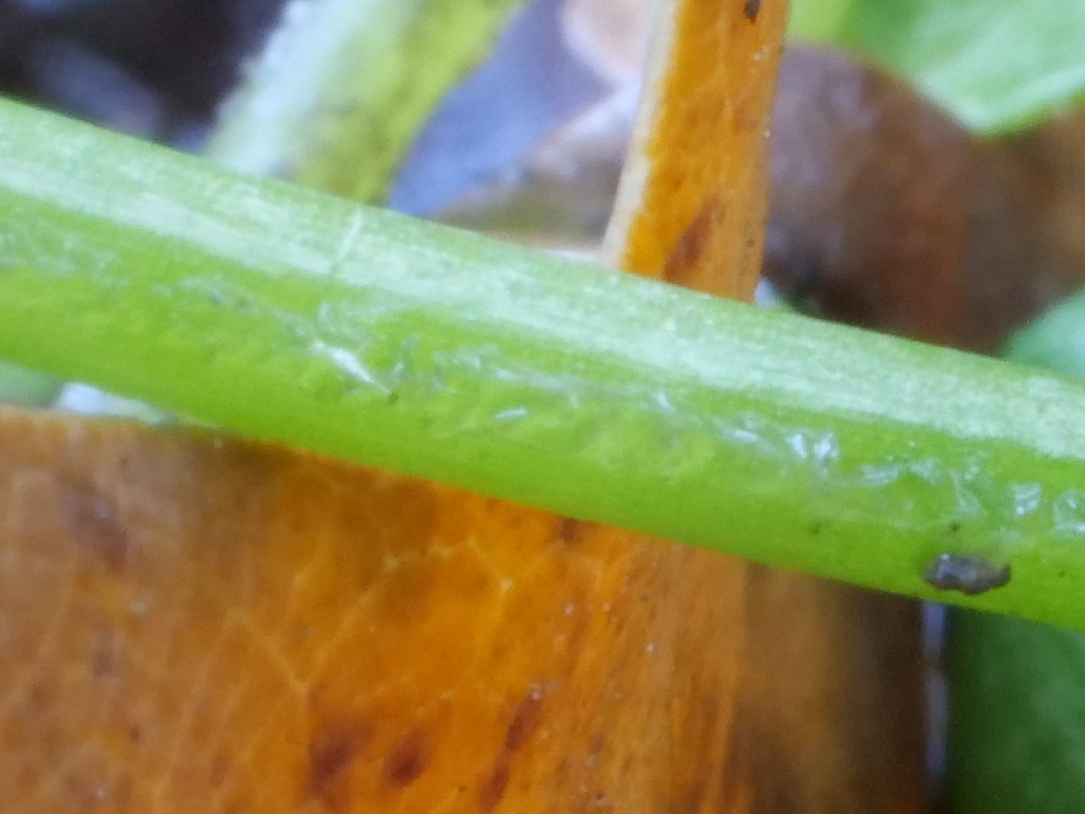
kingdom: Plantae
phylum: Tracheophyta
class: Magnoliopsida
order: Caryophyllales
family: Caryophyllaceae
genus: Stellaria
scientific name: Stellaria media
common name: Common chickweed
